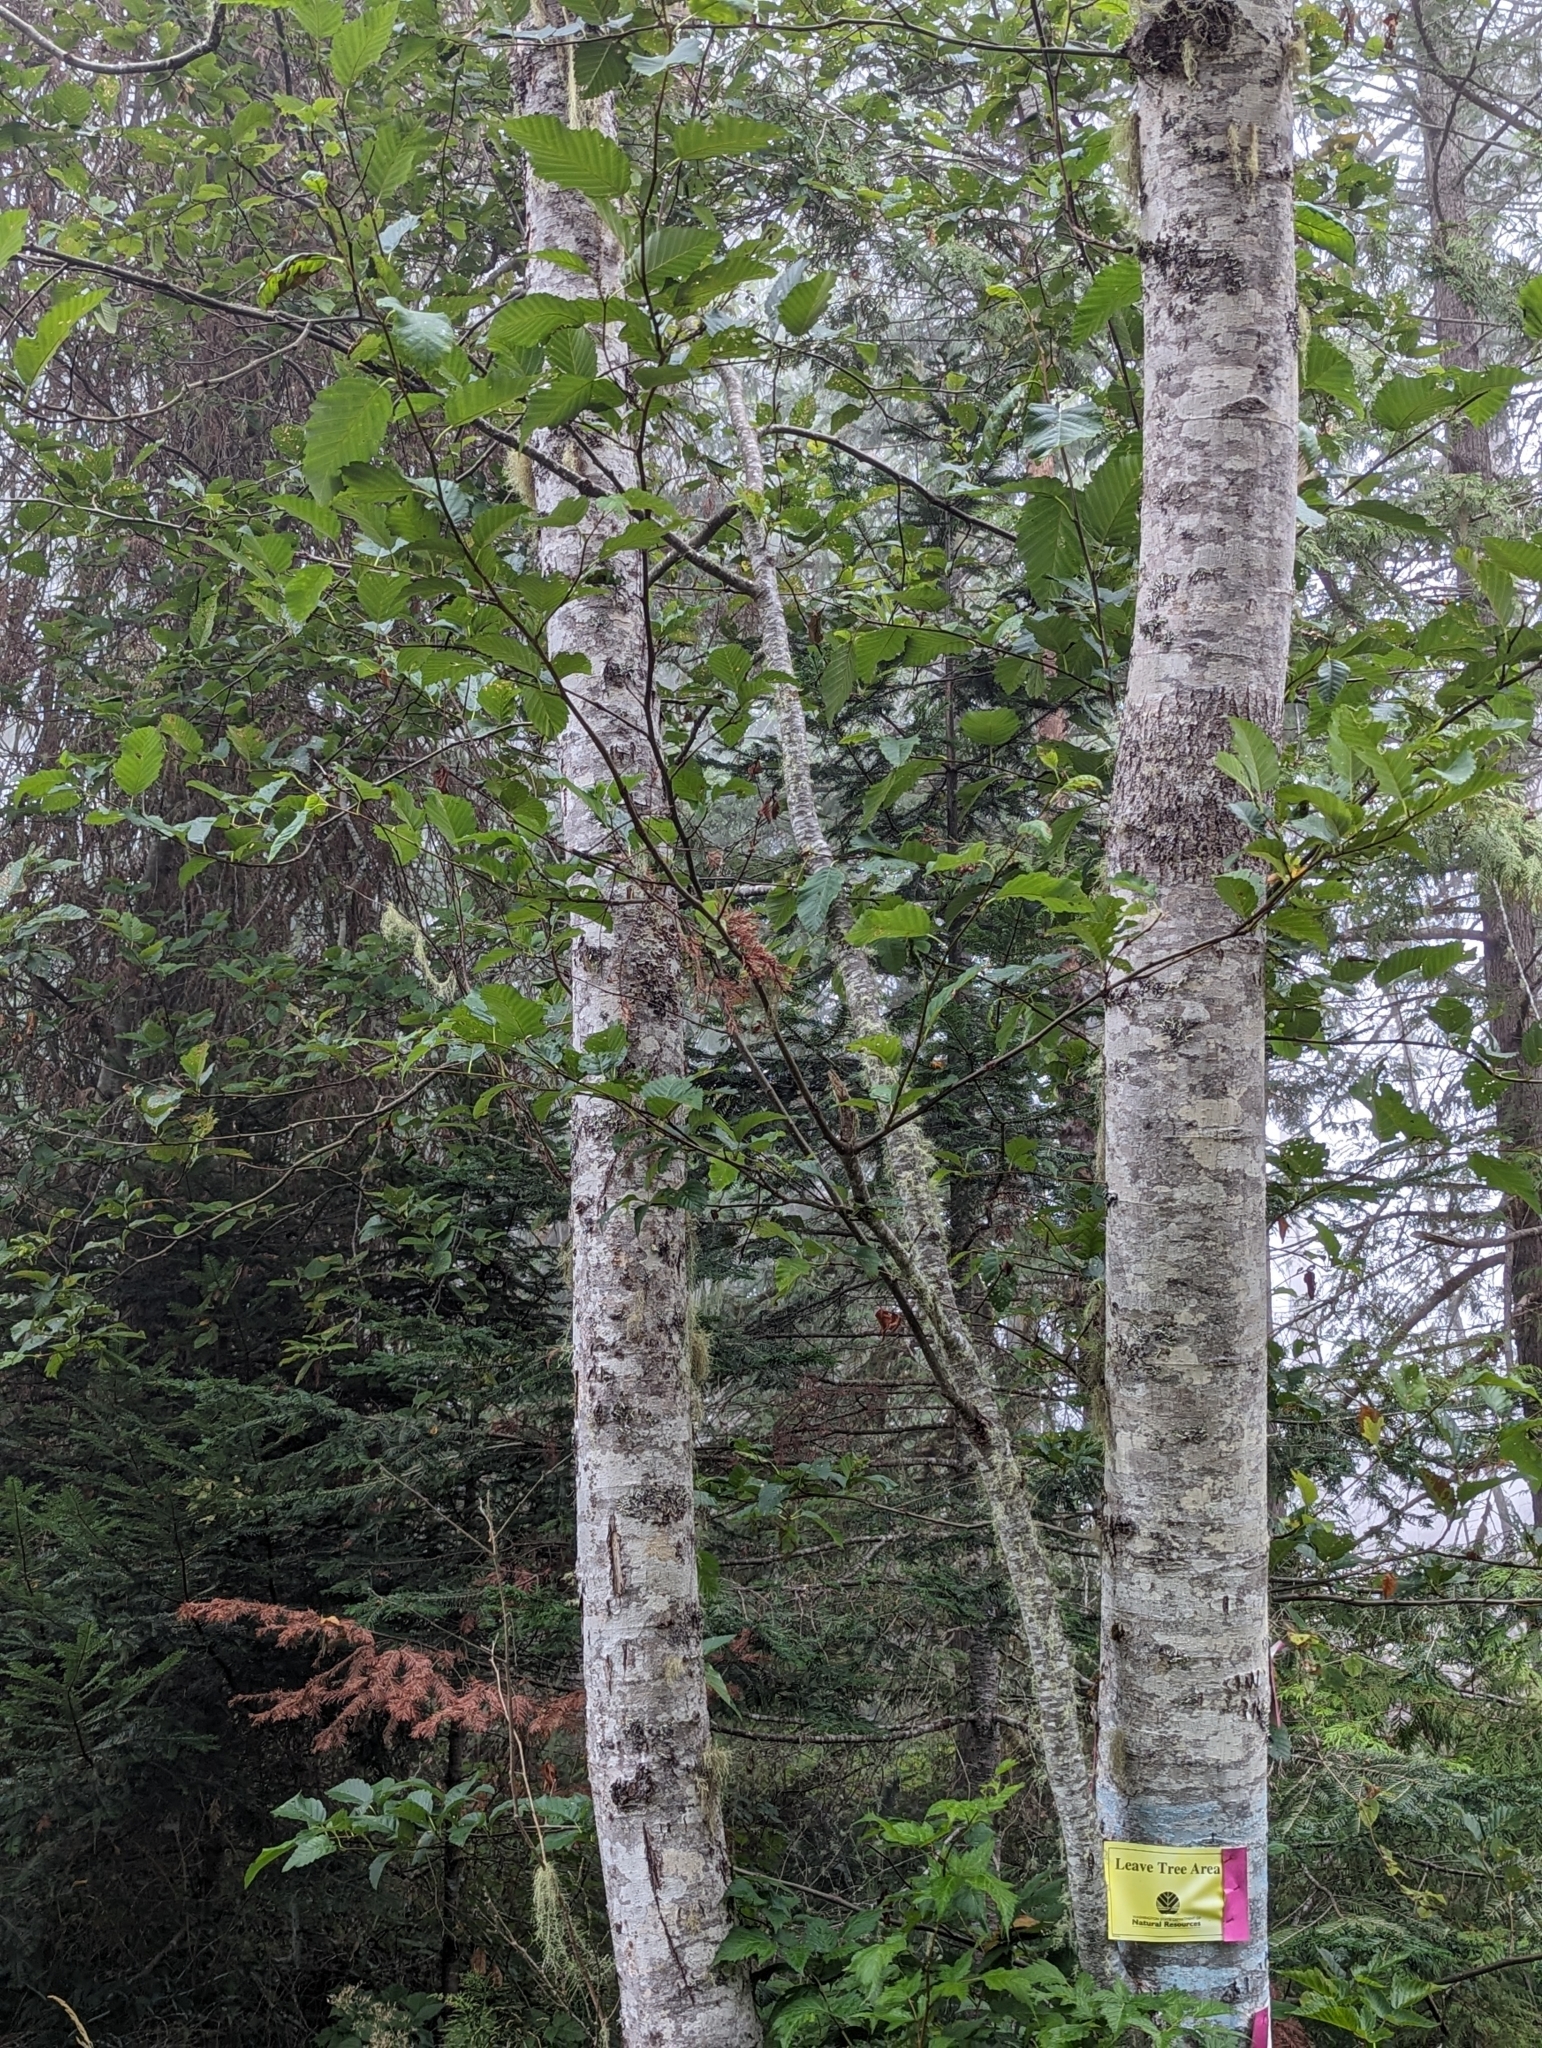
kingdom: Plantae
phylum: Tracheophyta
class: Magnoliopsida
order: Fagales
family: Betulaceae
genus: Alnus
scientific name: Alnus rubra
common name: Red alder
